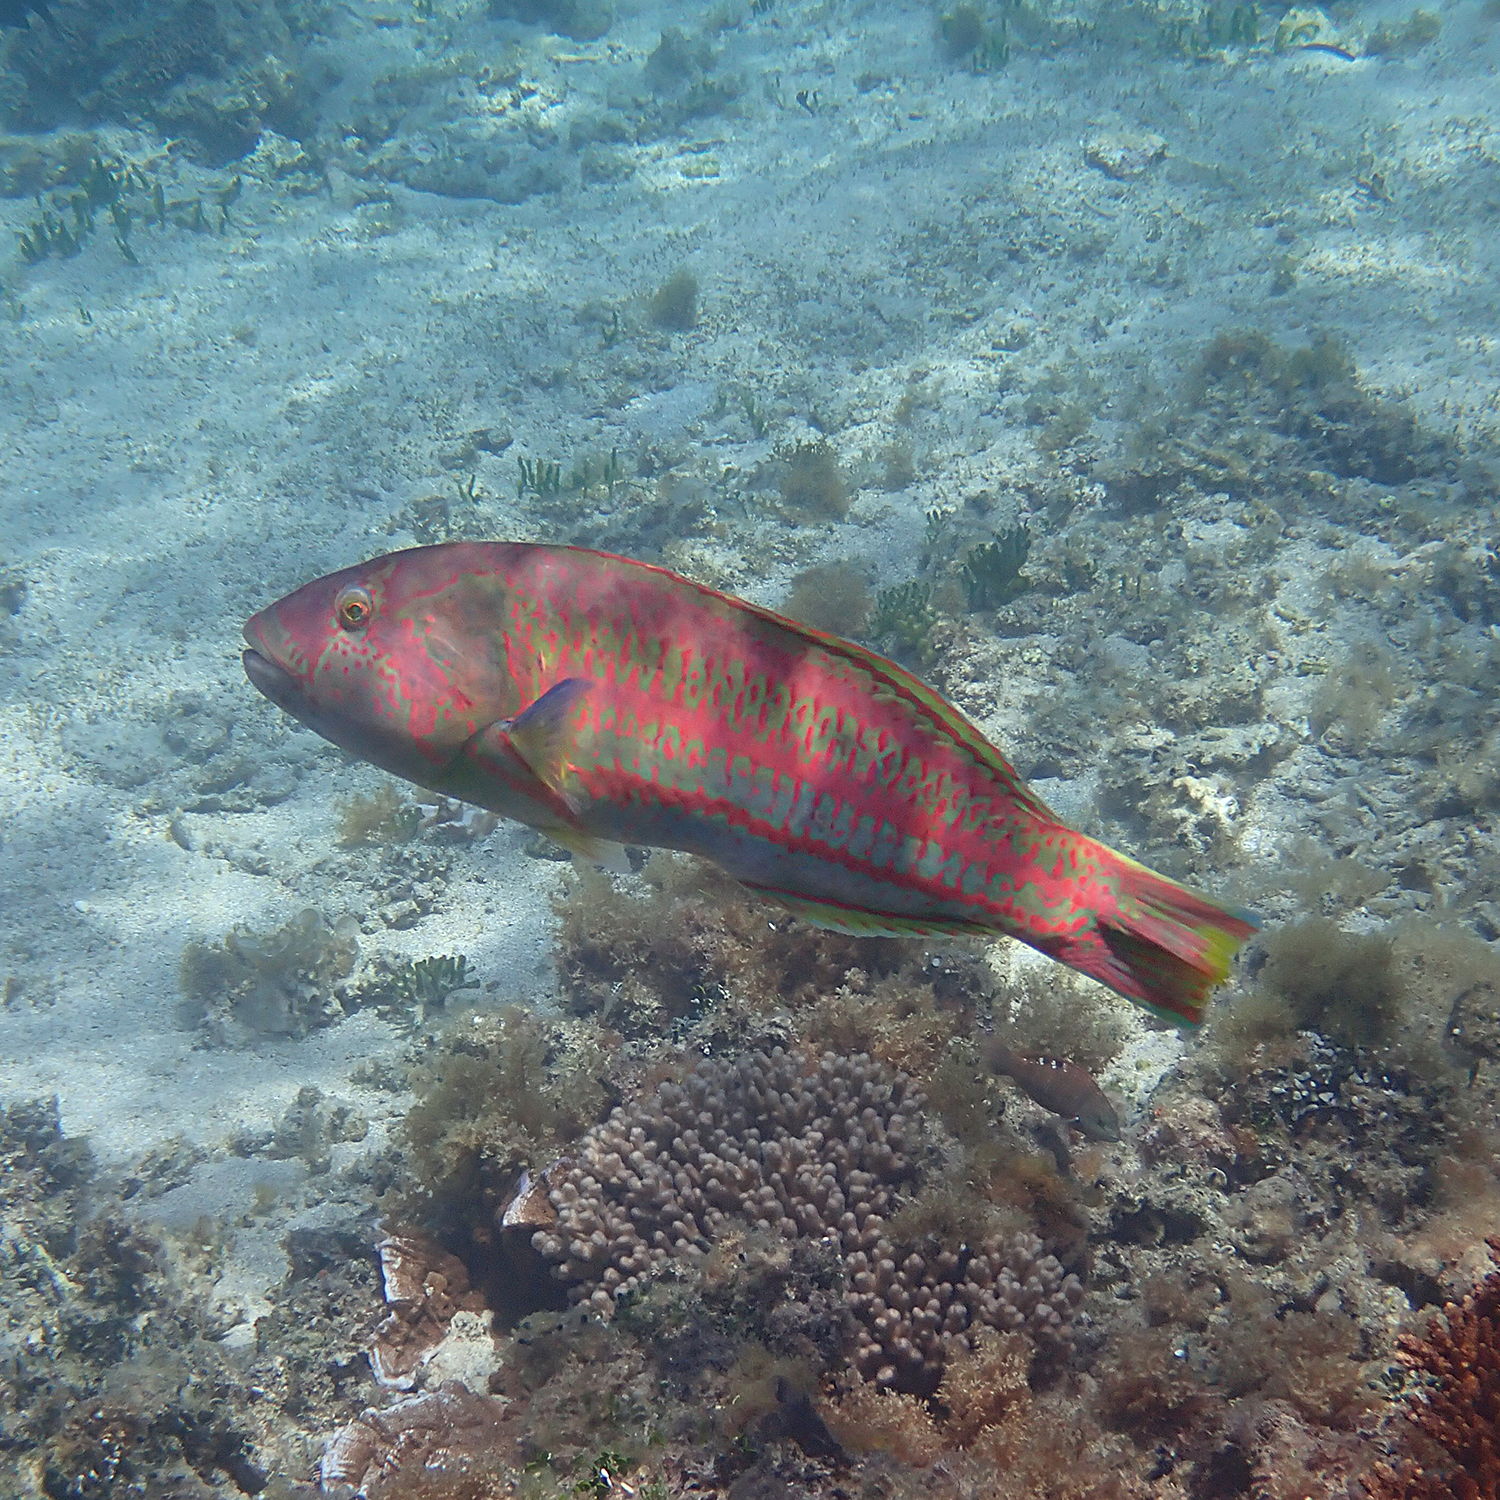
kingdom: Animalia
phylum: Chordata
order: Perciformes
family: Labridae
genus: Thalassoma
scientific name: Thalassoma purpureum
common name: Parrotfish
